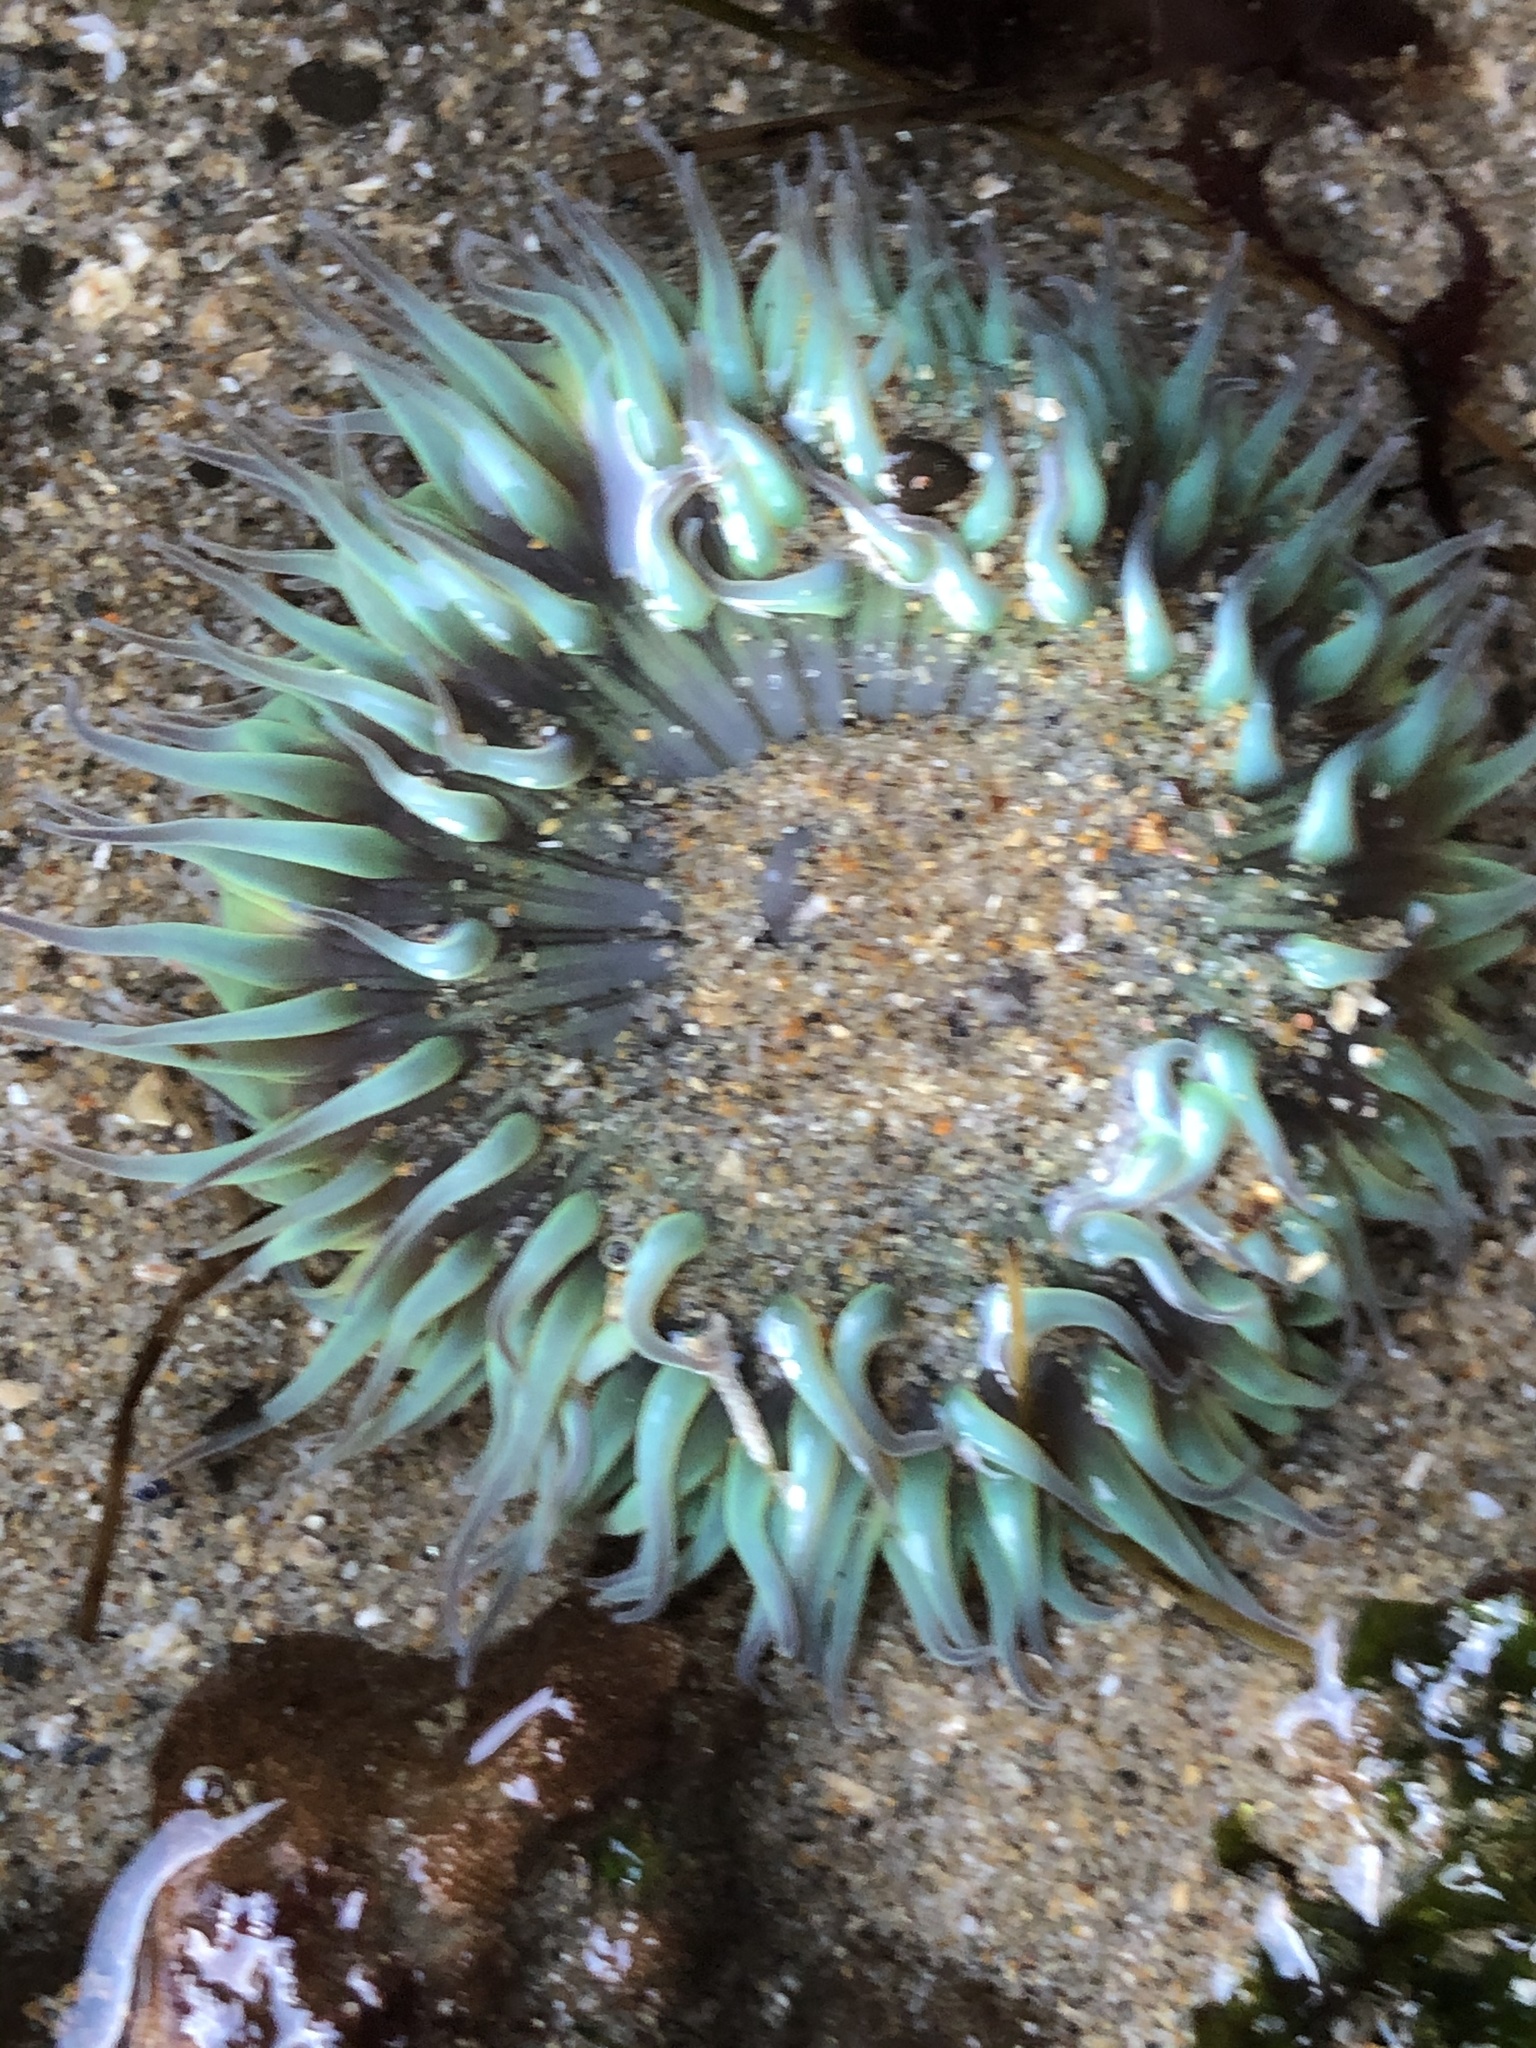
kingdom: Animalia
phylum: Cnidaria
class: Anthozoa
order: Actiniaria
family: Actiniidae
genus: Anthopleura
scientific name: Anthopleura sola
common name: Sun anemone
